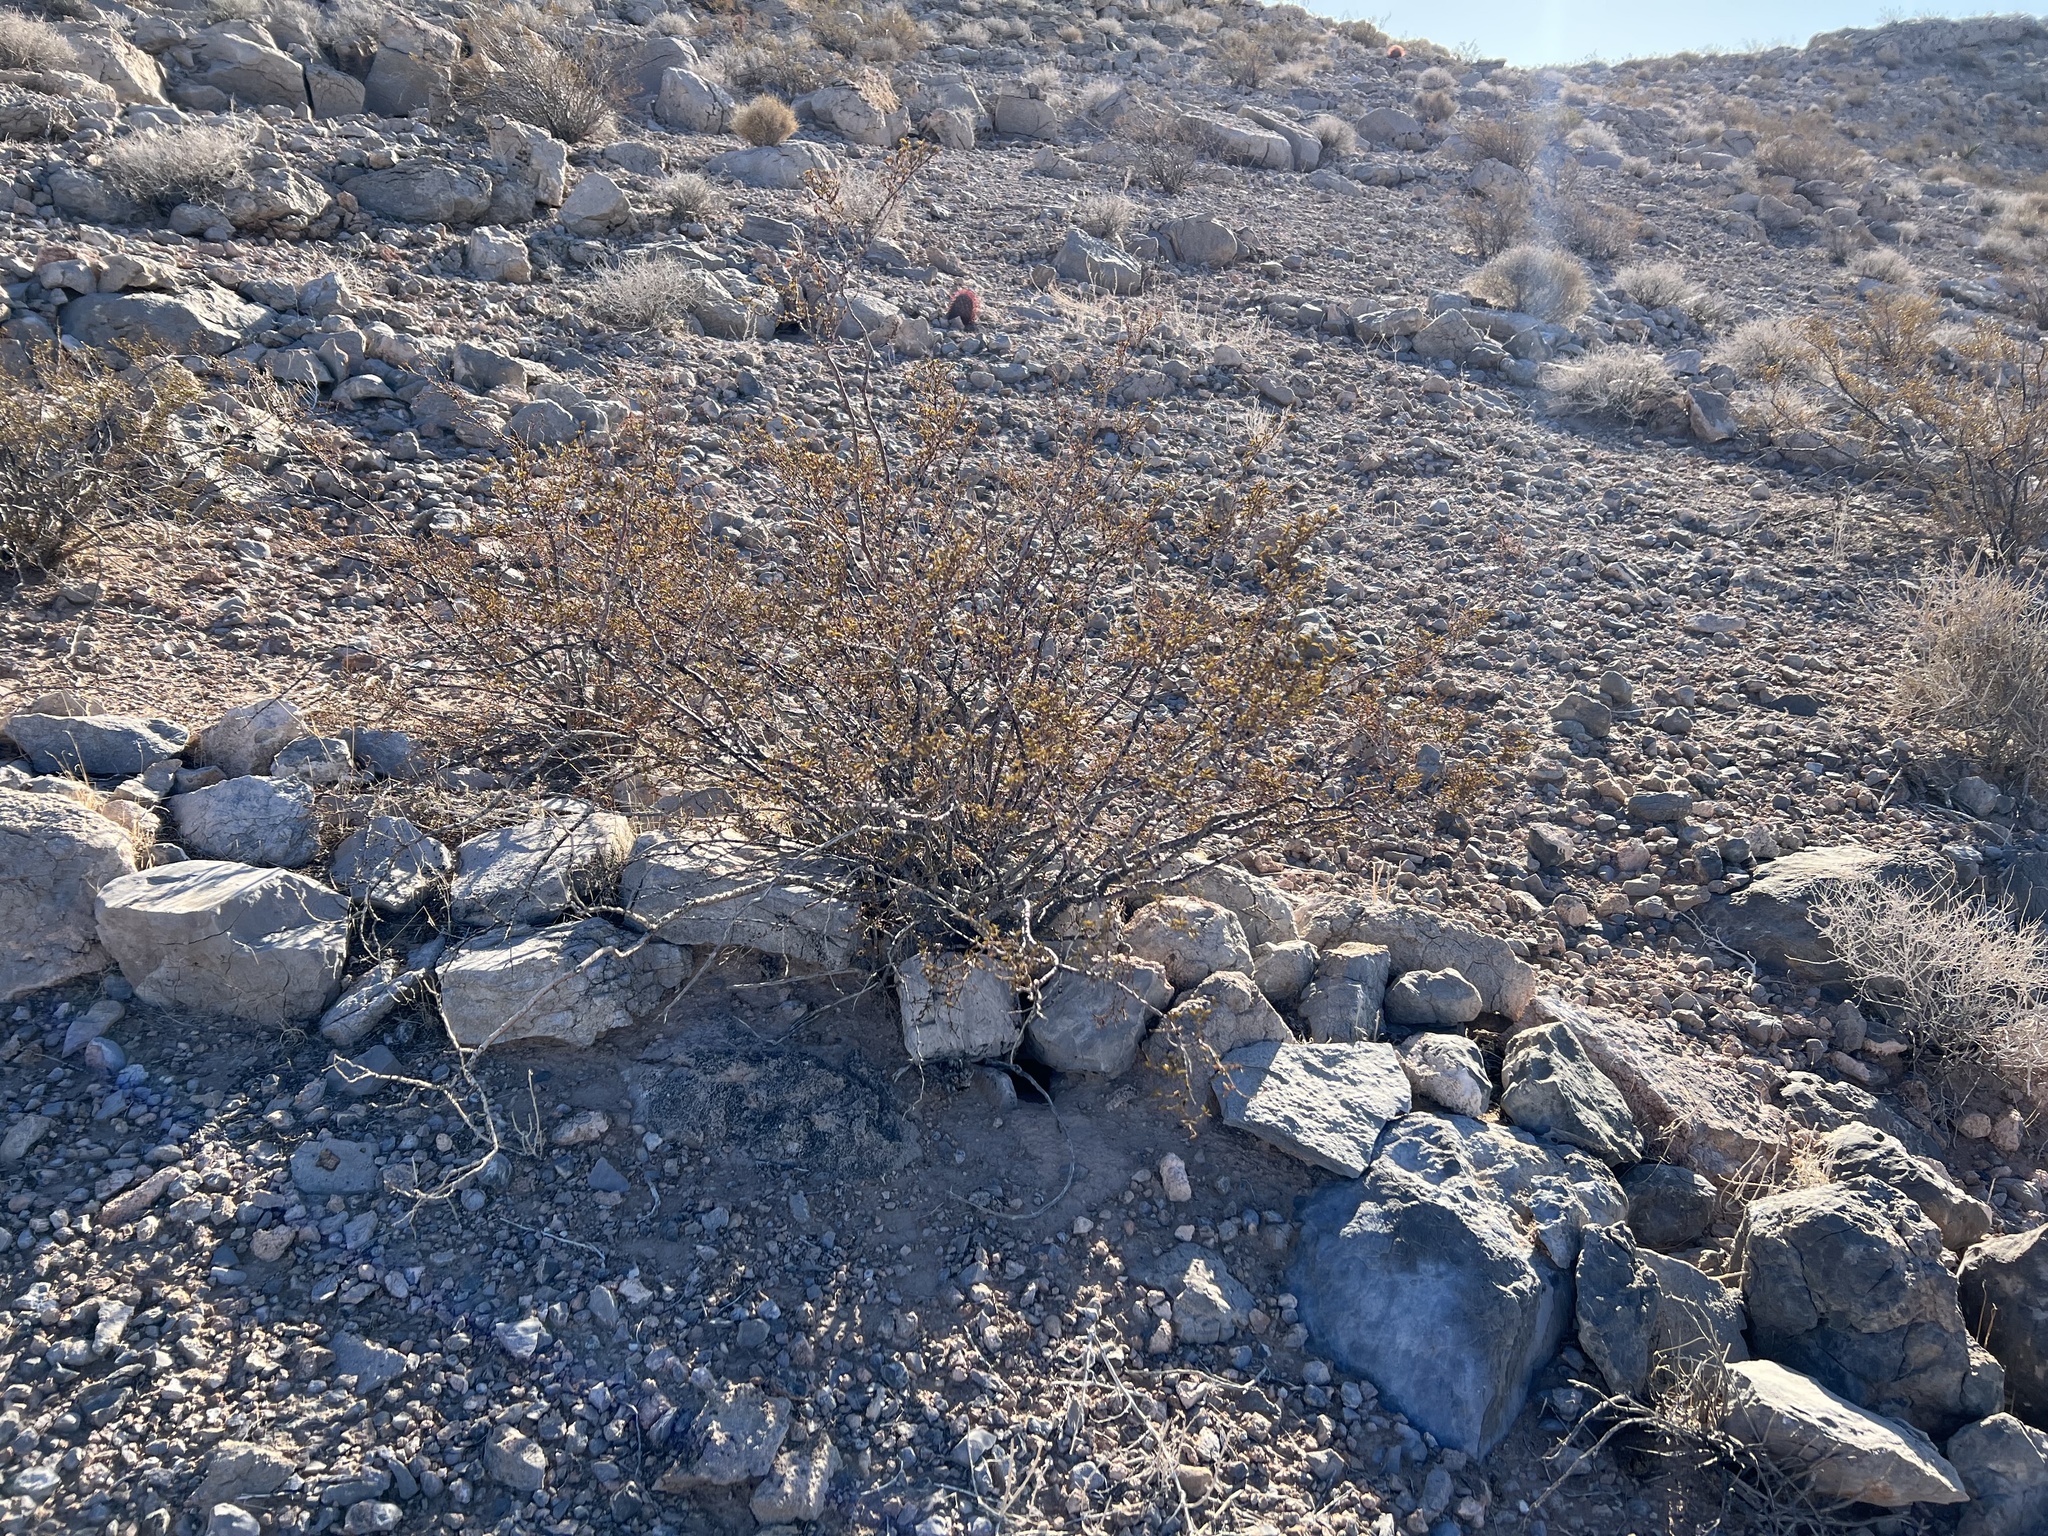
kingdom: Plantae
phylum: Tracheophyta
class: Magnoliopsida
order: Zygophyllales
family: Zygophyllaceae
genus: Larrea
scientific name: Larrea tridentata
